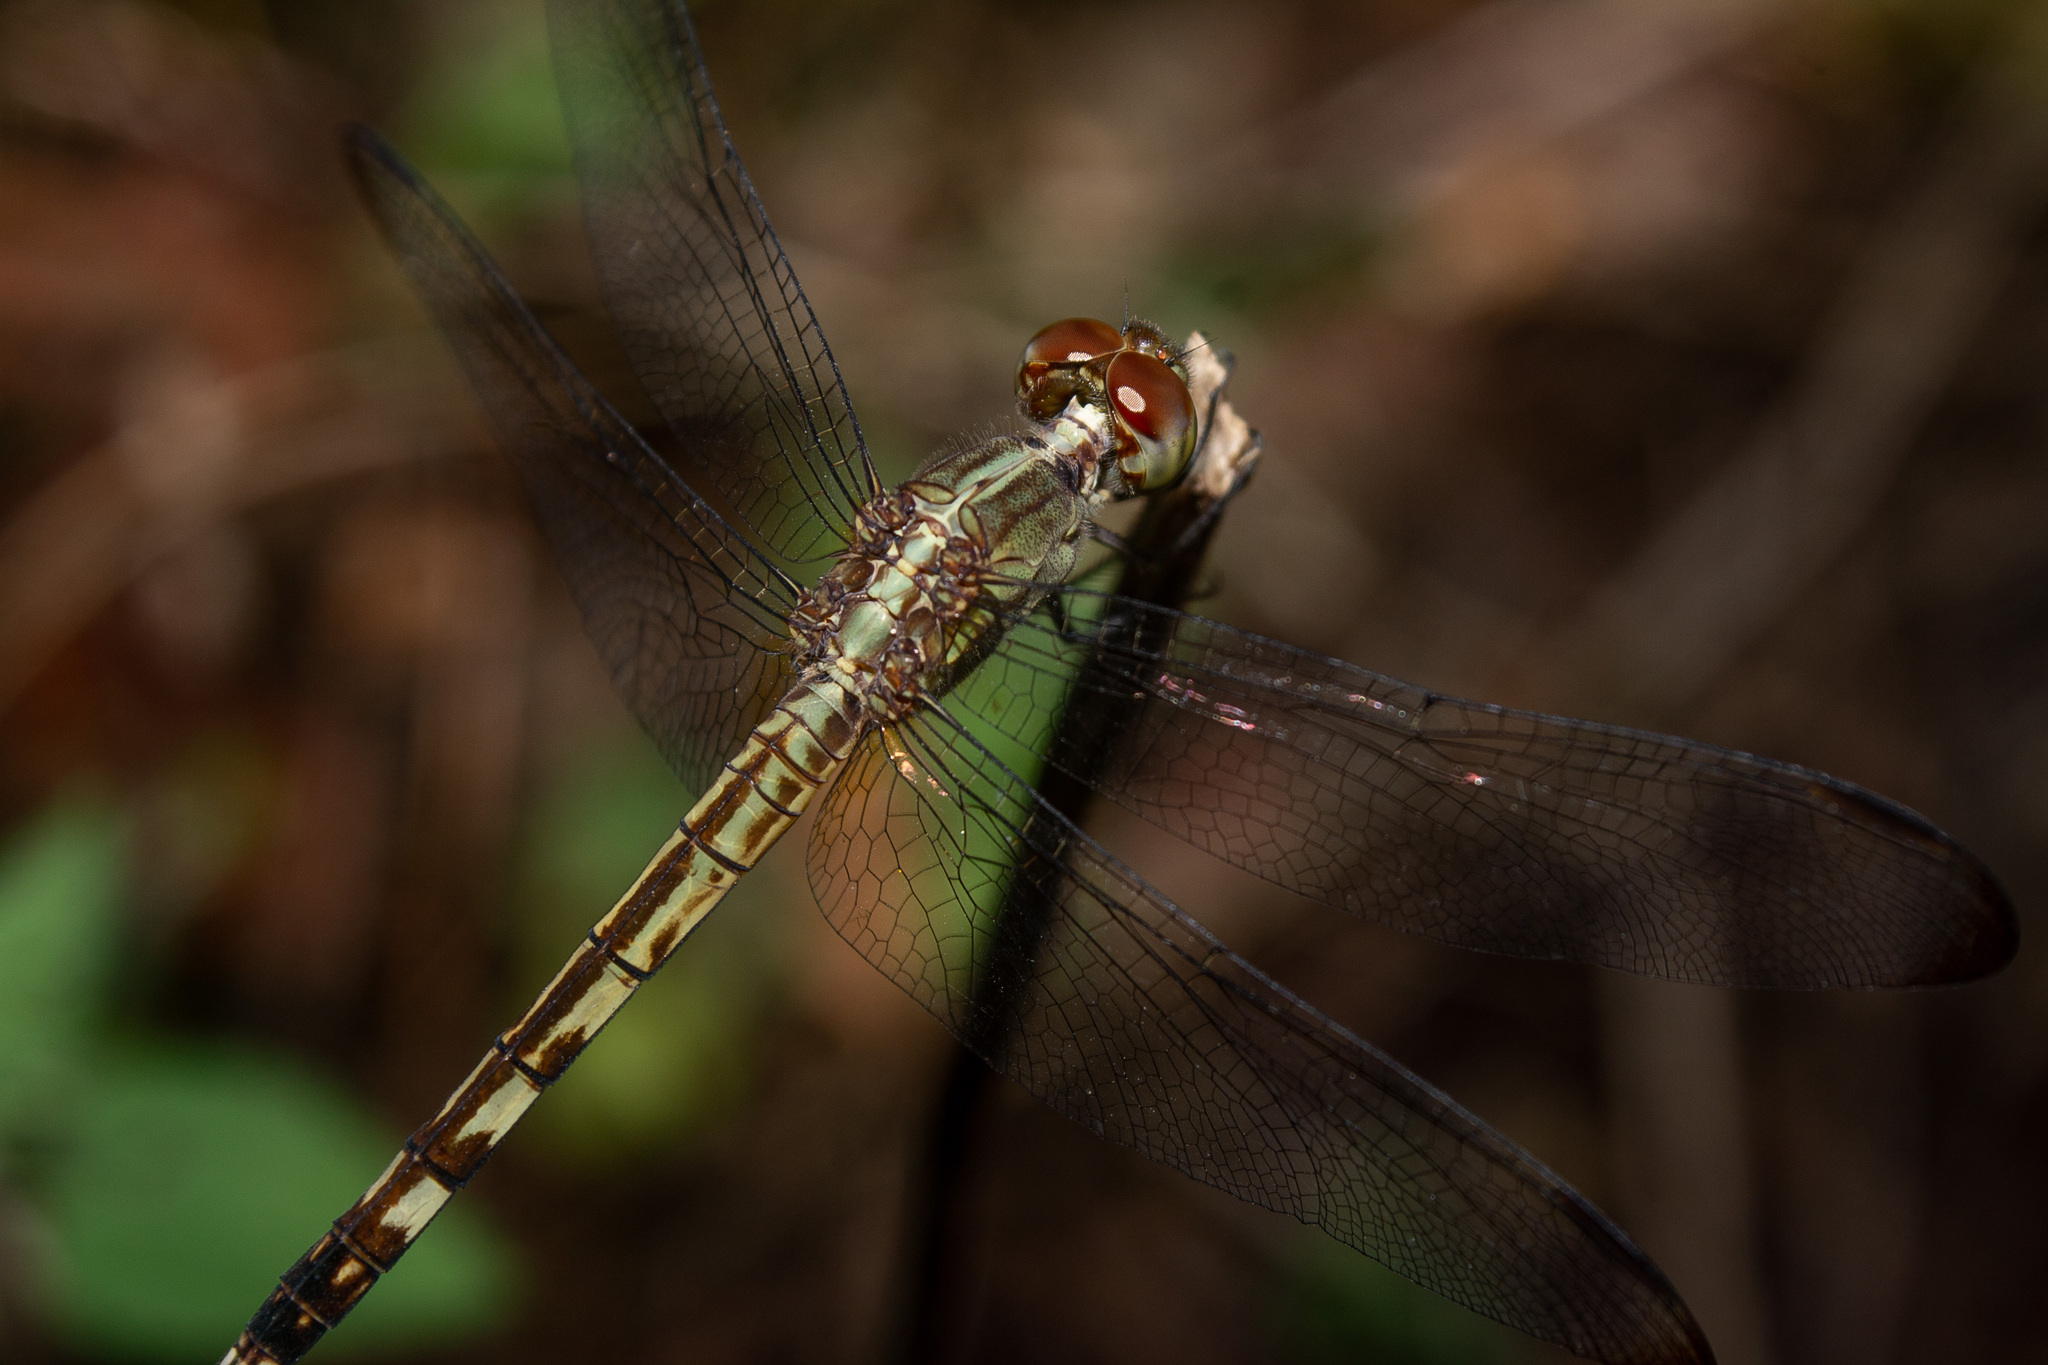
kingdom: Animalia
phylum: Arthropoda
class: Insecta
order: Odonata
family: Libellulidae
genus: Erythrodiplax
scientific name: Erythrodiplax umbrata
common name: Band-winged dragonlet
